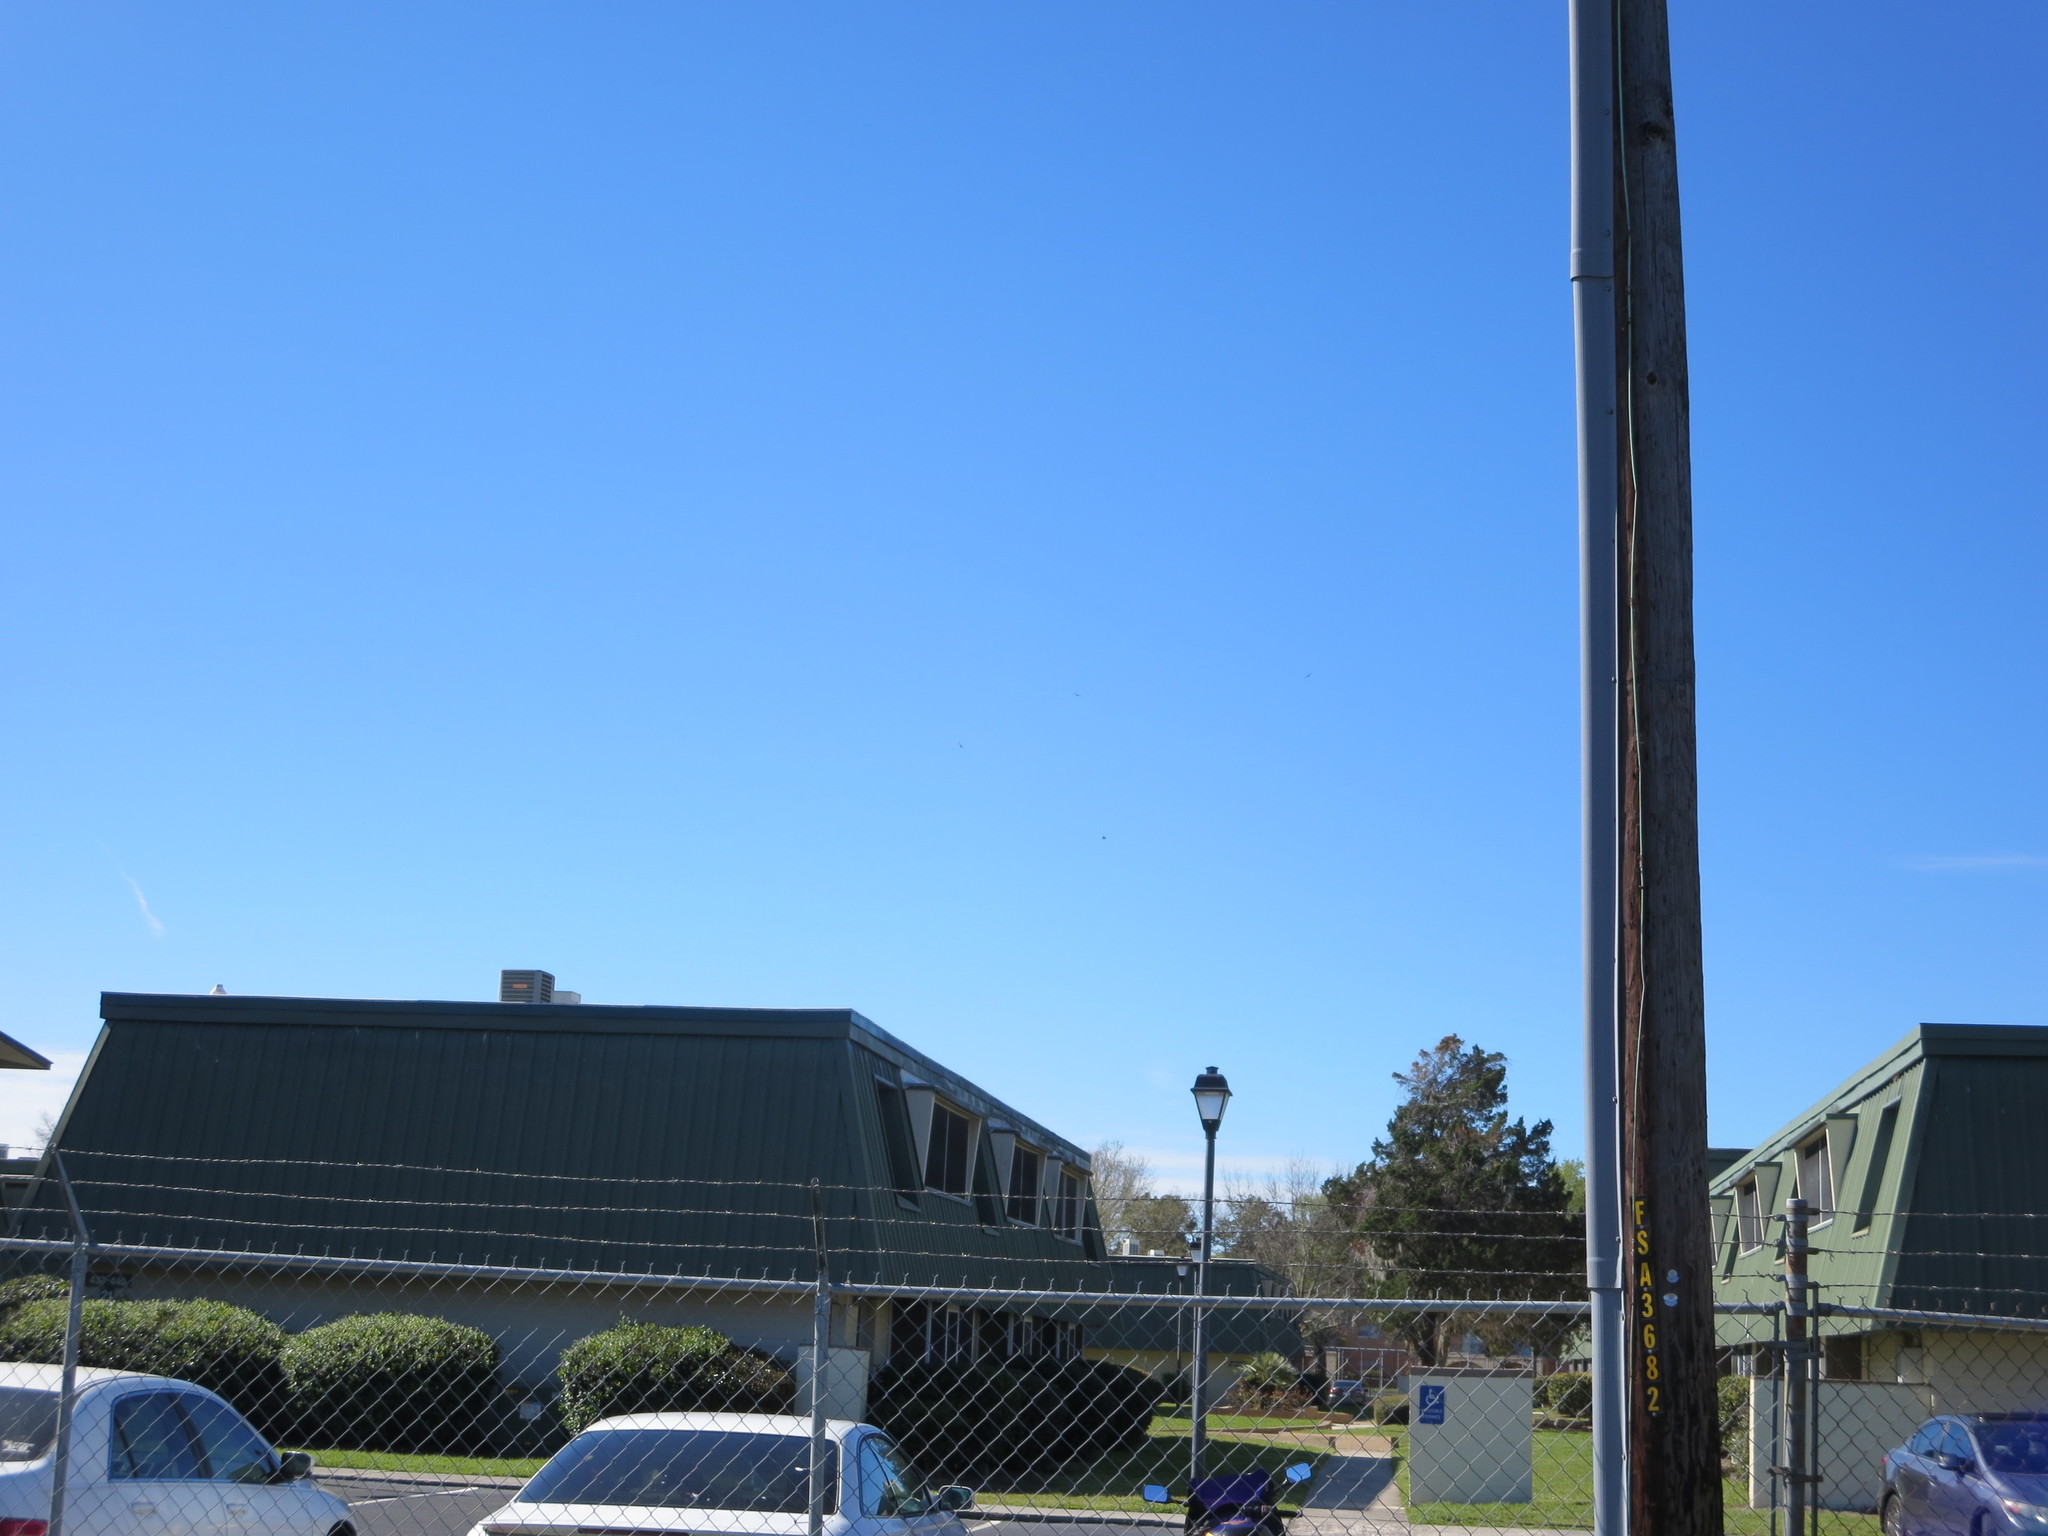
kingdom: Animalia
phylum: Chordata
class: Aves
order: Accipitriformes
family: Cathartidae
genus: Coragyps
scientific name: Coragyps atratus
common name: Black vulture
